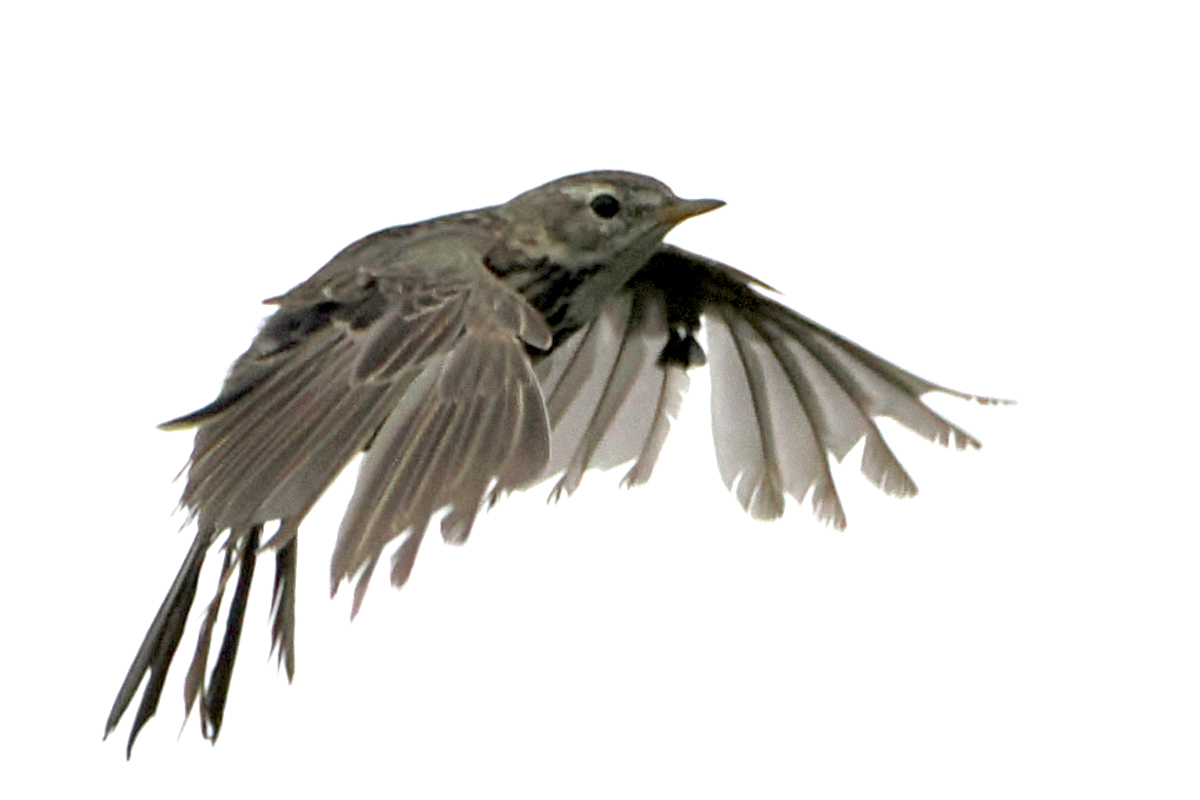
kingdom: Animalia
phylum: Chordata
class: Aves
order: Passeriformes
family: Motacillidae
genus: Anthus
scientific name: Anthus pratensis
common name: Meadow pipit
